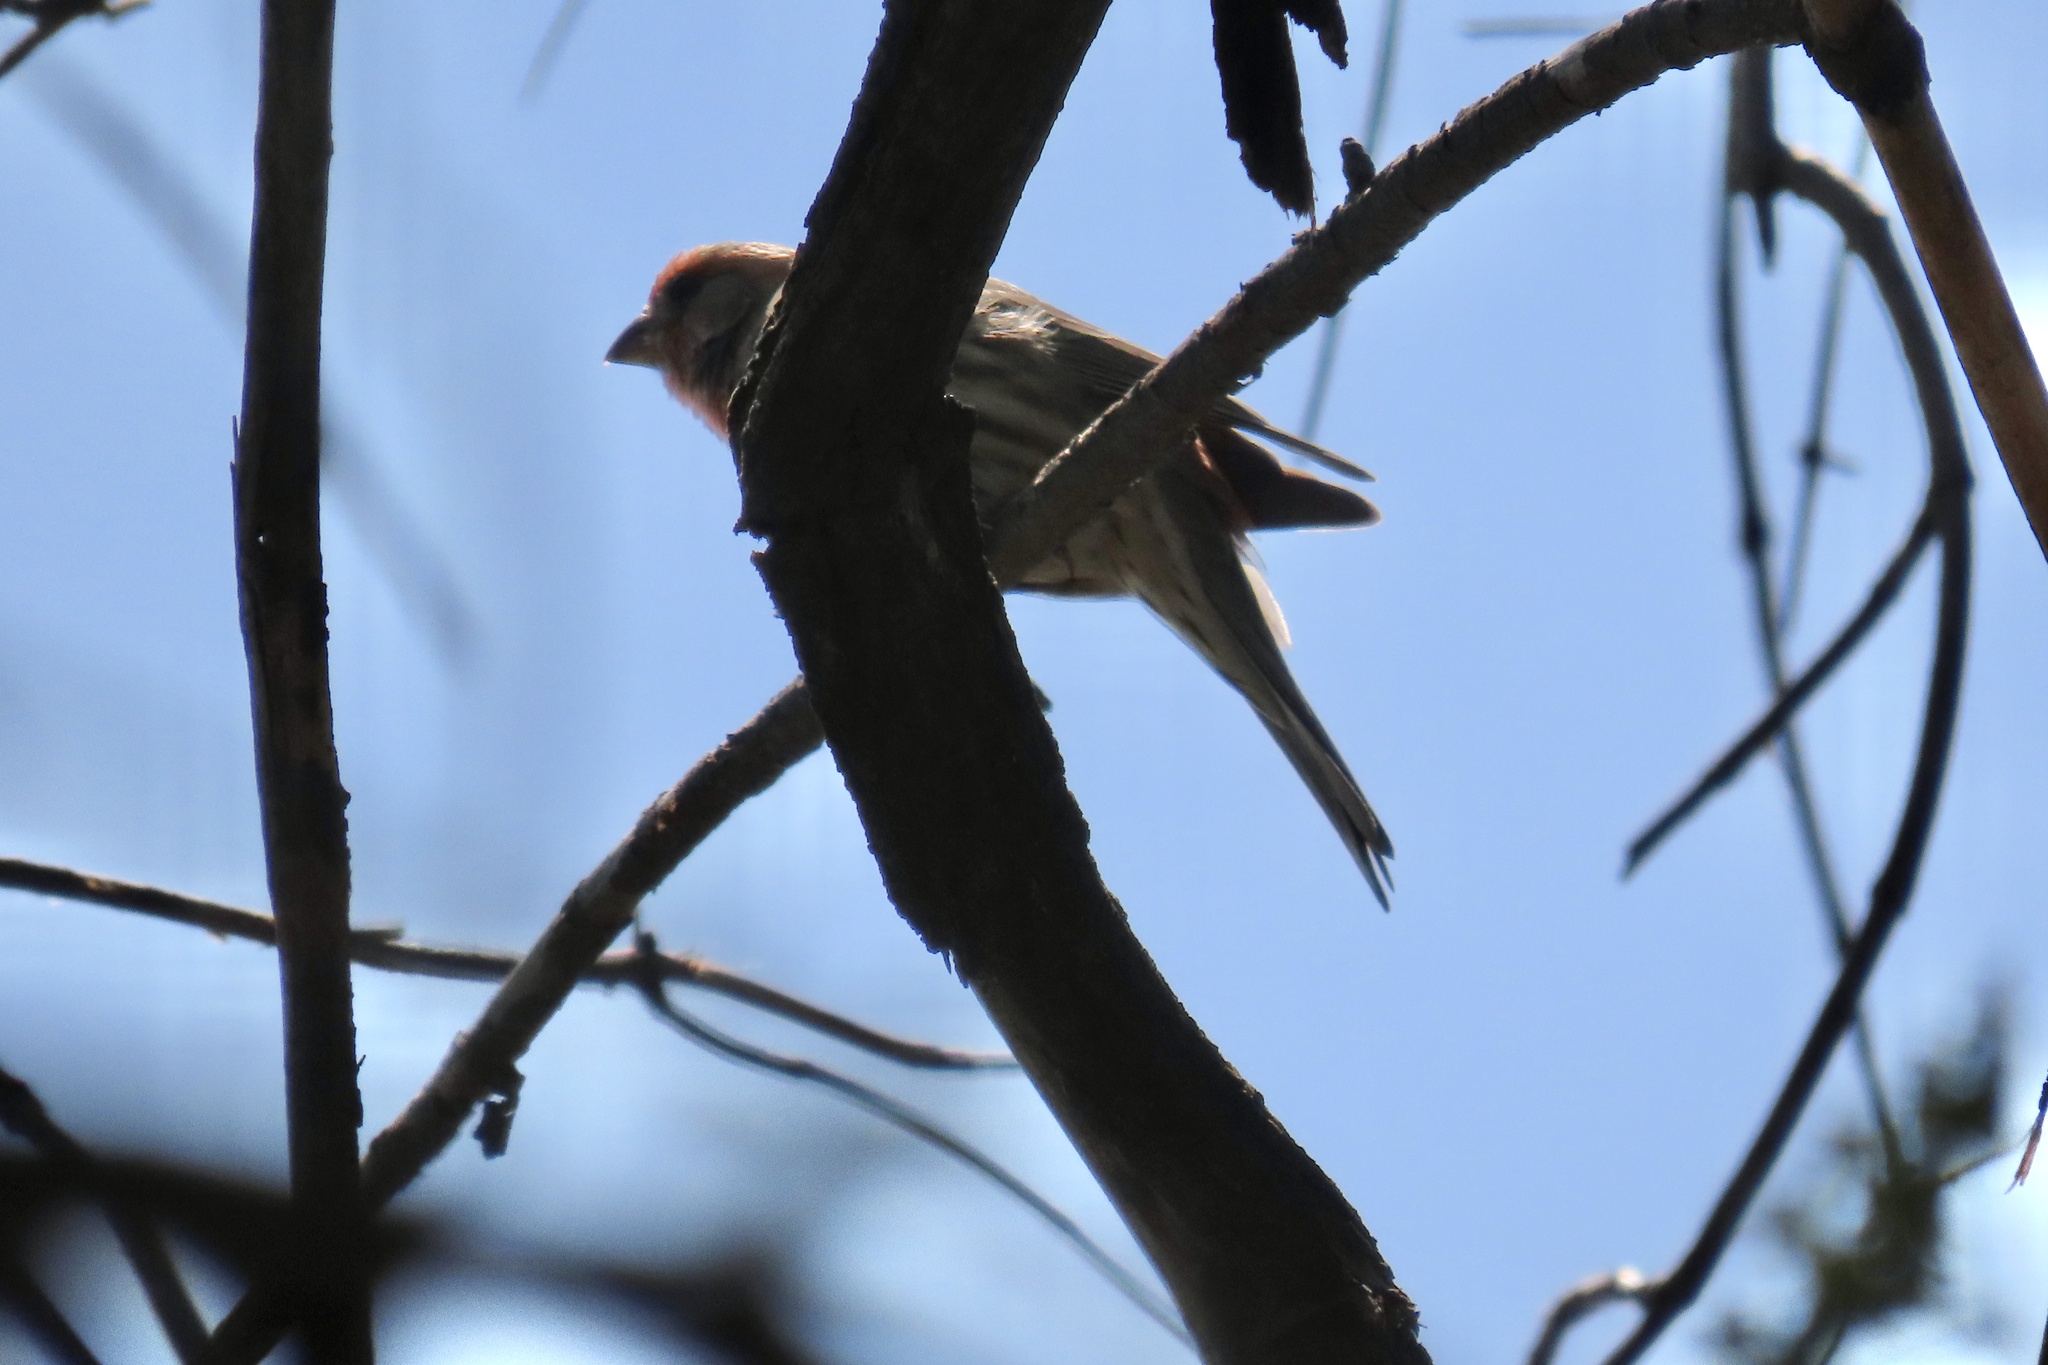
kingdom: Animalia
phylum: Chordata
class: Aves
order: Passeriformes
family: Fringillidae
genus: Haemorhous
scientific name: Haemorhous mexicanus
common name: House finch
